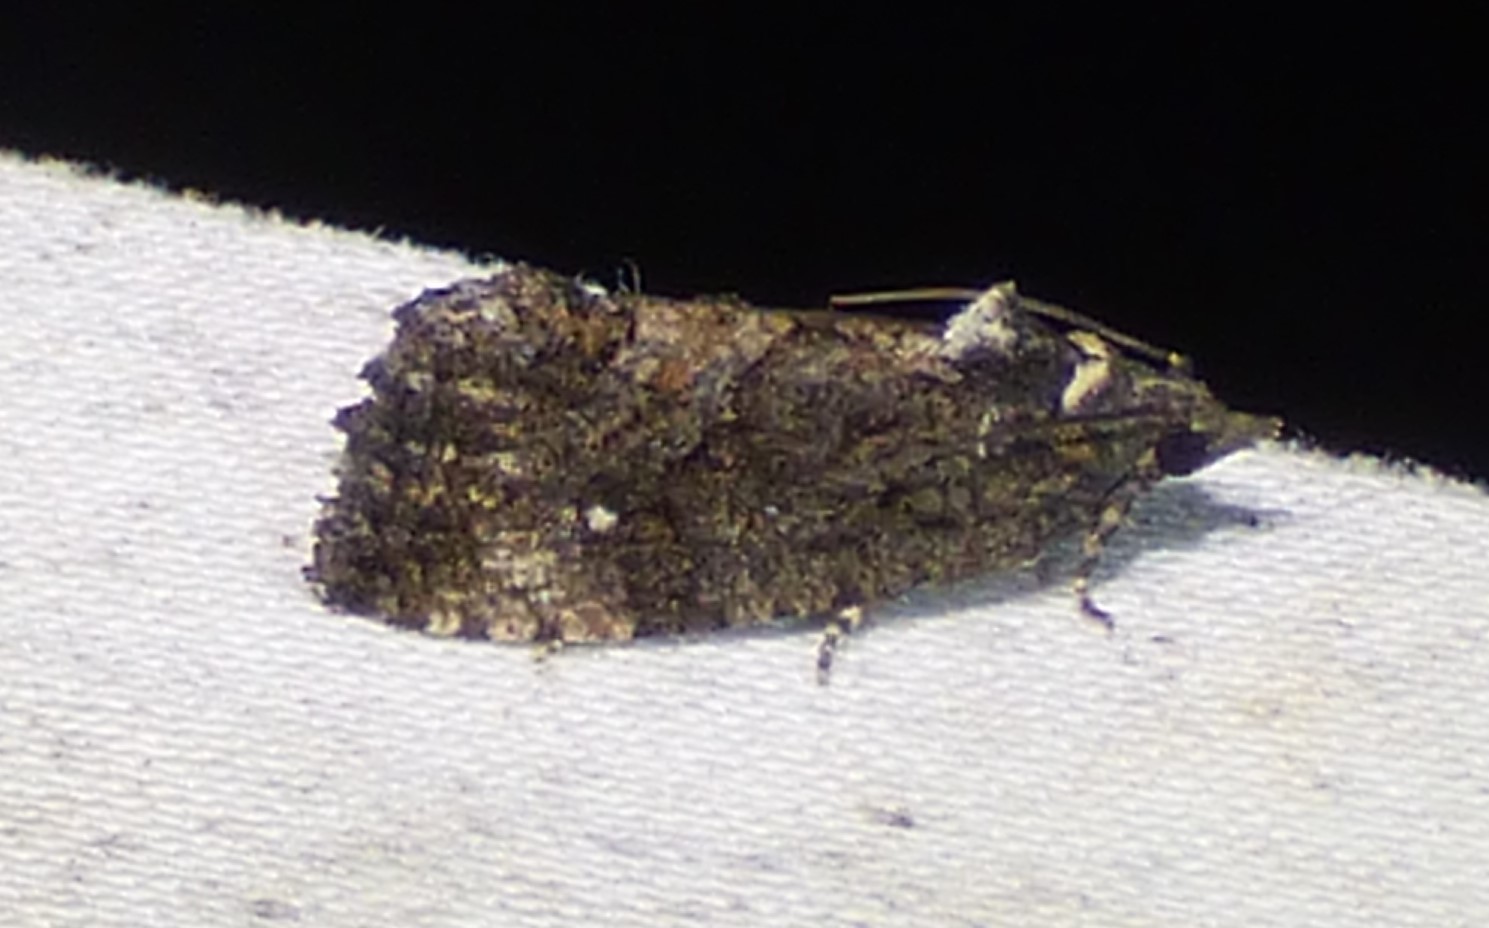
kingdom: Animalia
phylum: Arthropoda
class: Insecta
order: Lepidoptera
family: Tortricidae
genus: Gymnandrosoma
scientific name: Gymnandrosoma punctidiscanum
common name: Dotted ecdytolopha moth
